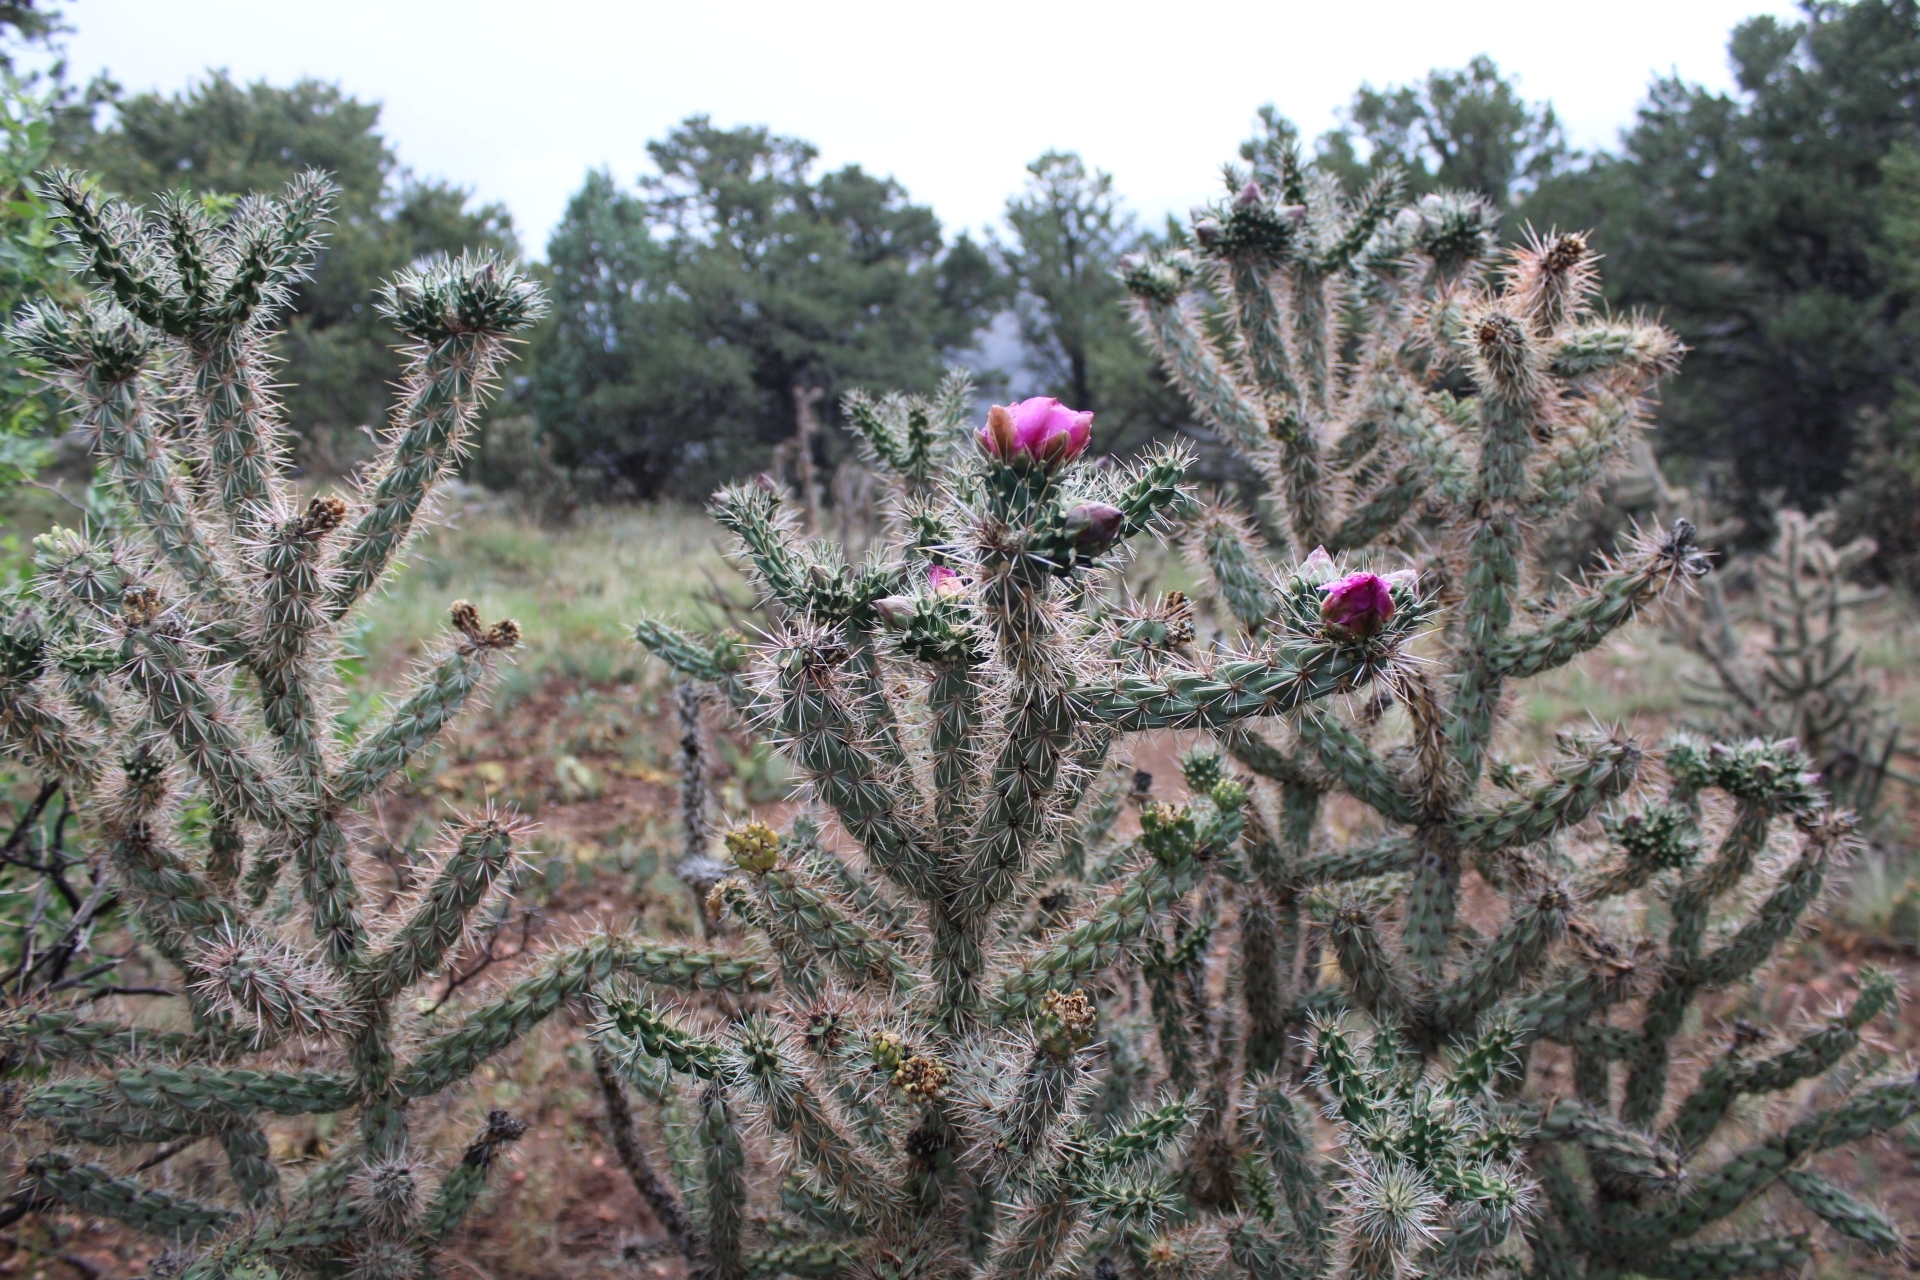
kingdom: Plantae
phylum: Tracheophyta
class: Magnoliopsida
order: Caryophyllales
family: Cactaceae
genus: Cylindropuntia
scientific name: Cylindropuntia imbricata
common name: Candelabrum cactus
